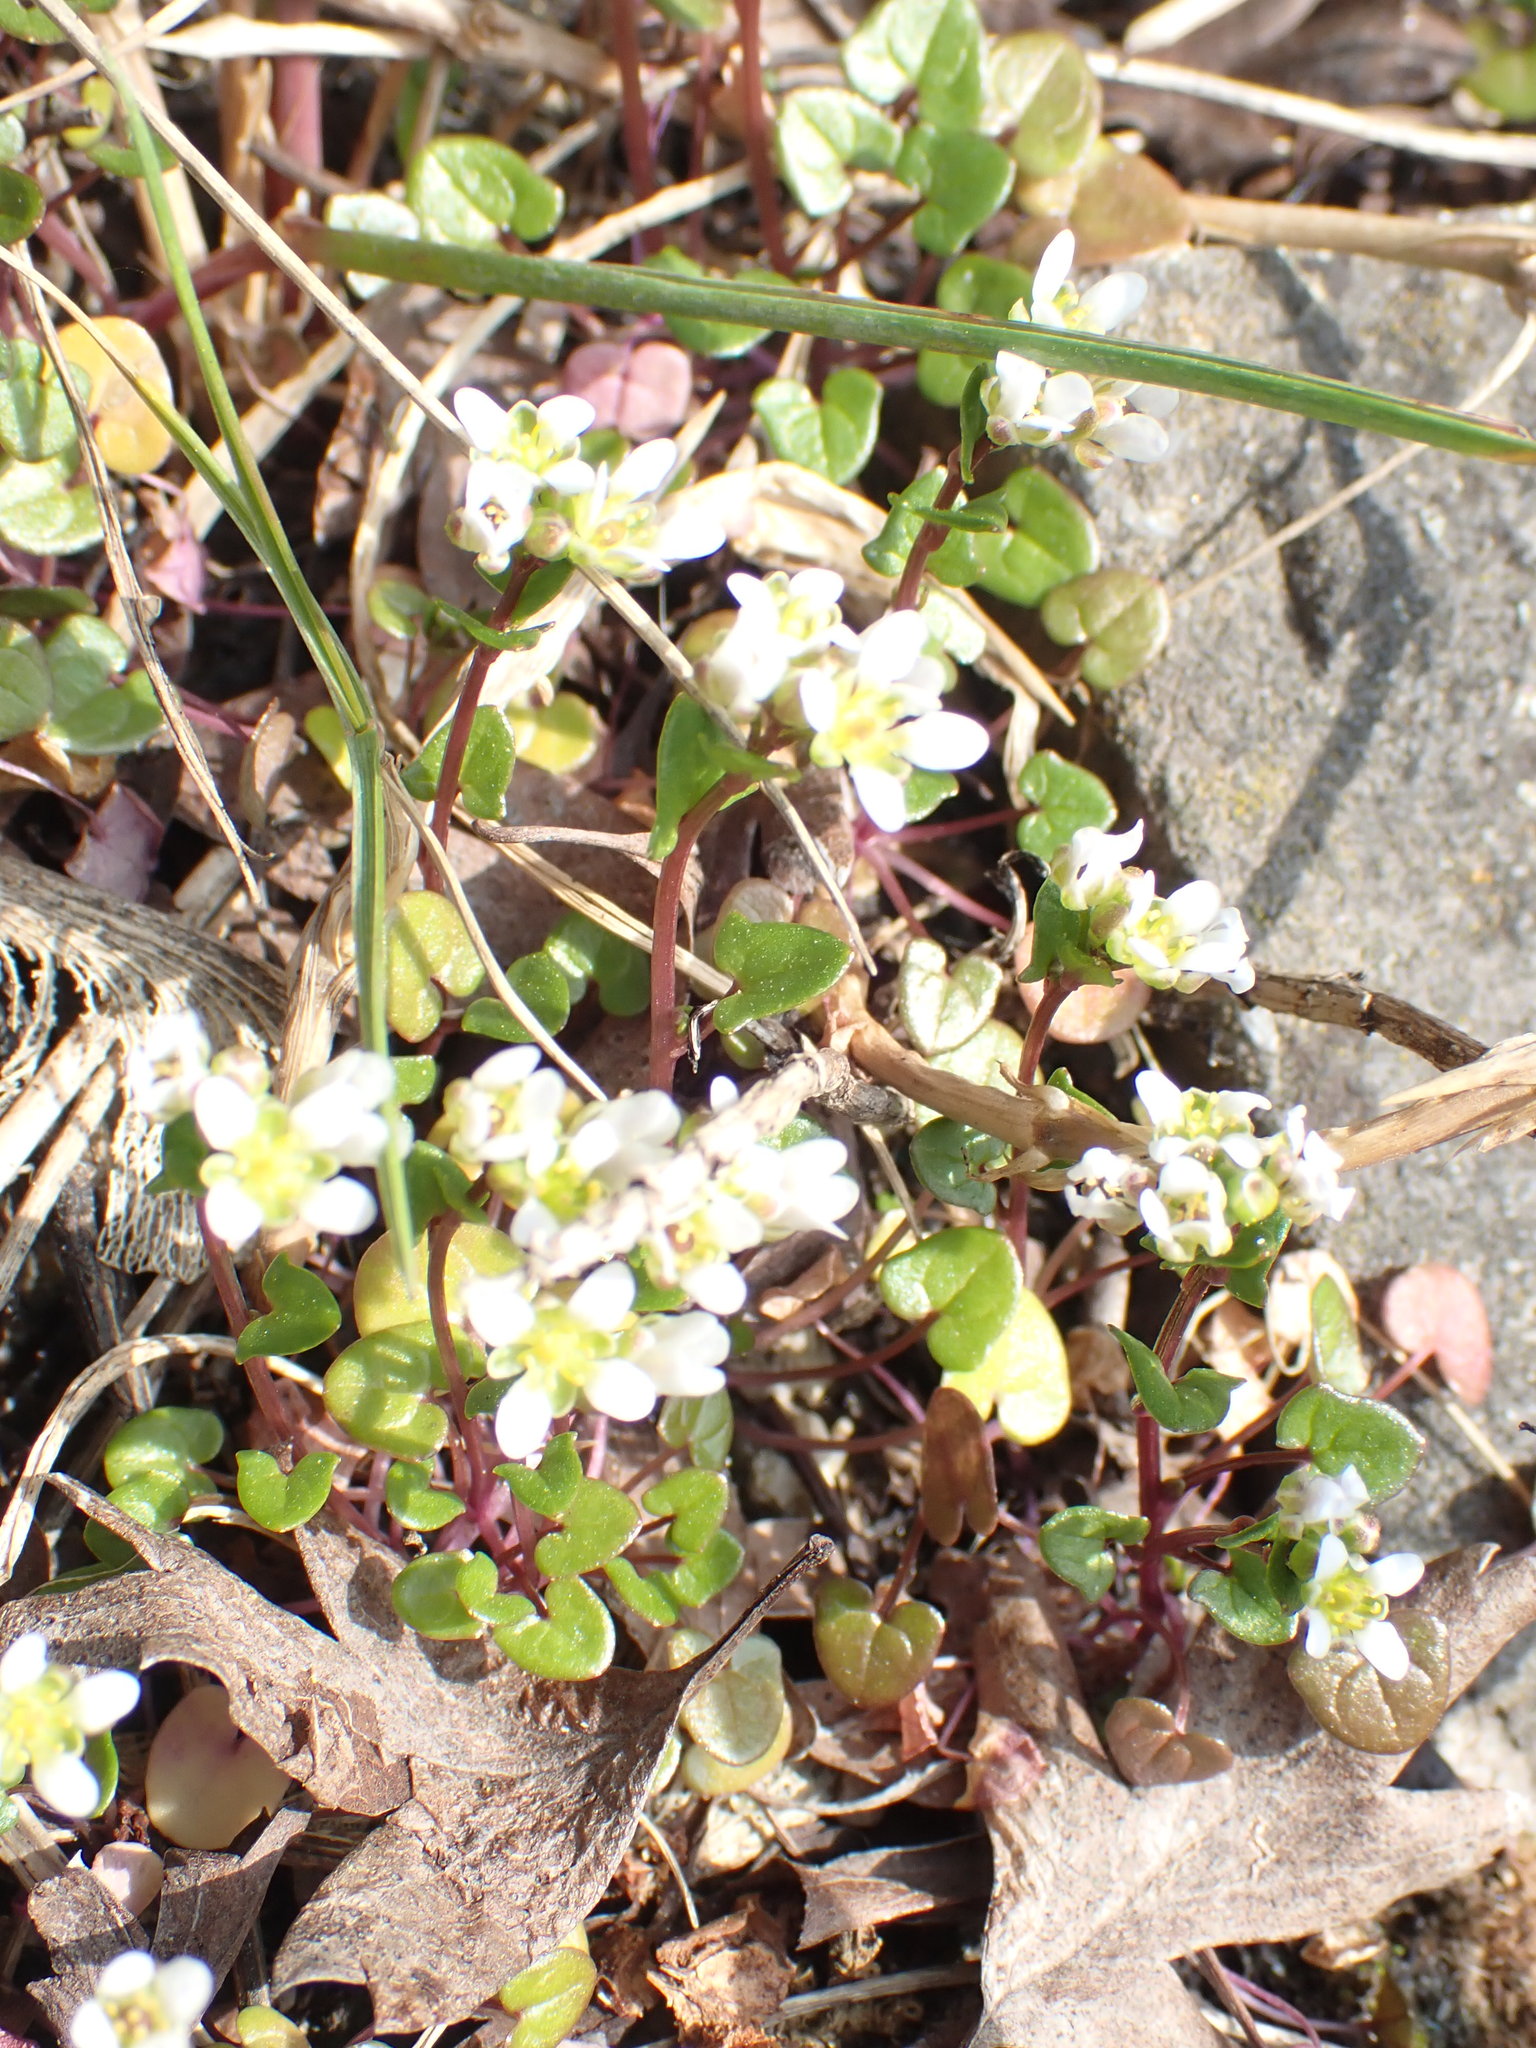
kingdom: Plantae
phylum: Tracheophyta
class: Magnoliopsida
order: Brassicales
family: Brassicaceae
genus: Cochlearia
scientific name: Cochlearia danica
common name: Early scurvygrass
